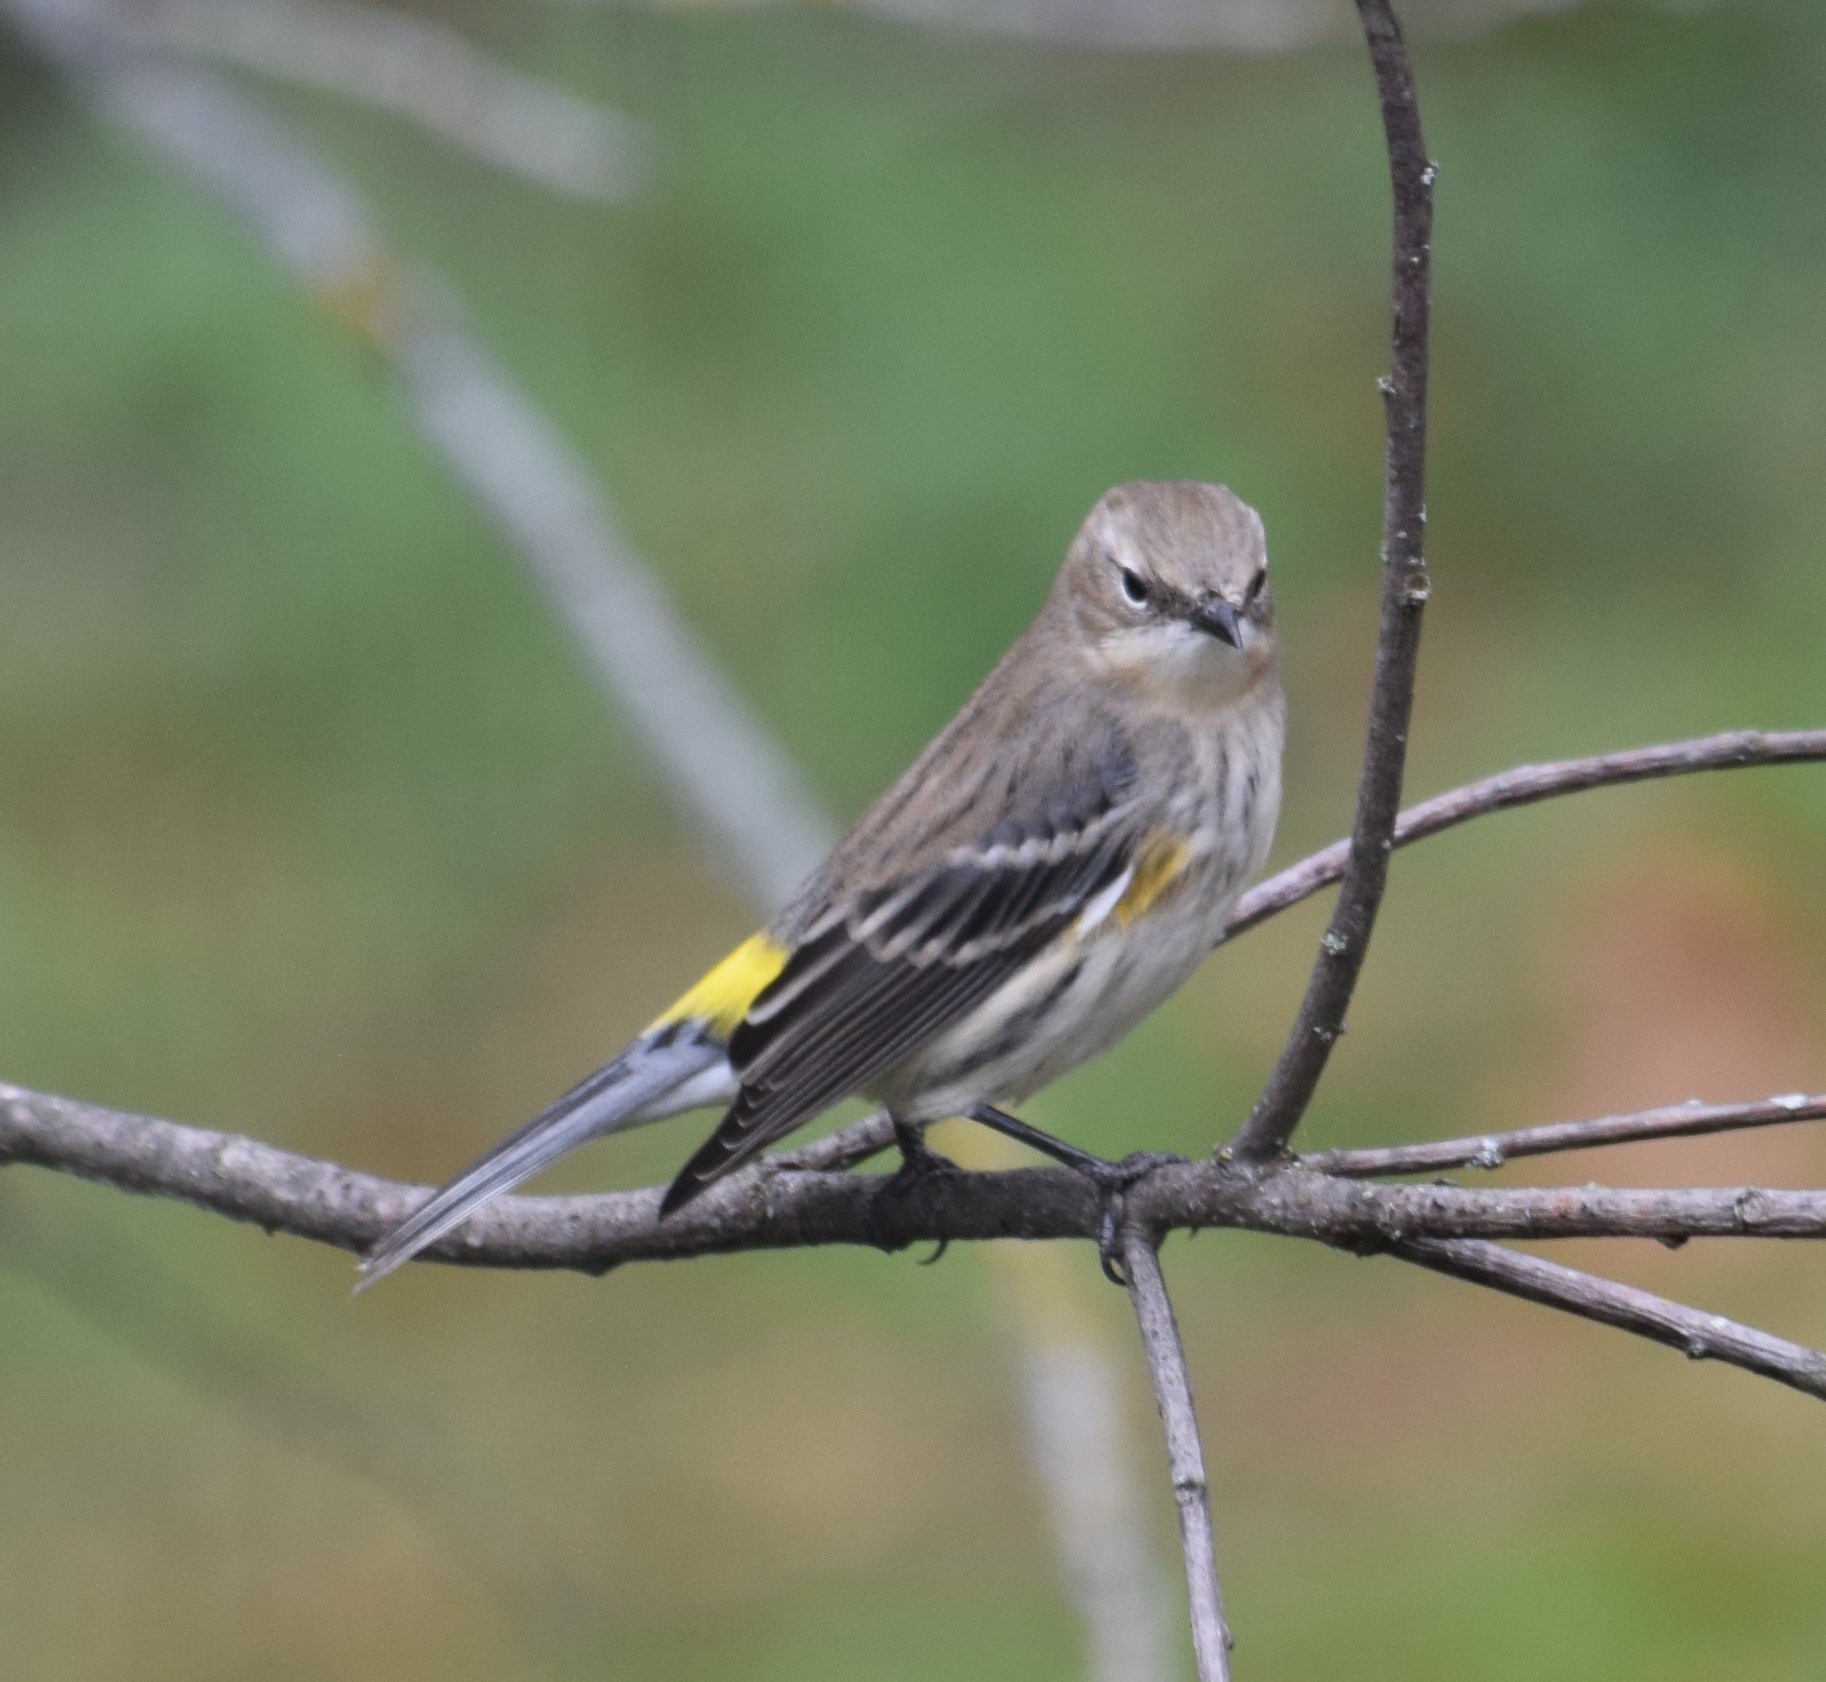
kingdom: Animalia
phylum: Chordata
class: Aves
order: Passeriformes
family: Parulidae
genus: Setophaga
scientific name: Setophaga coronata
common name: Myrtle warbler
